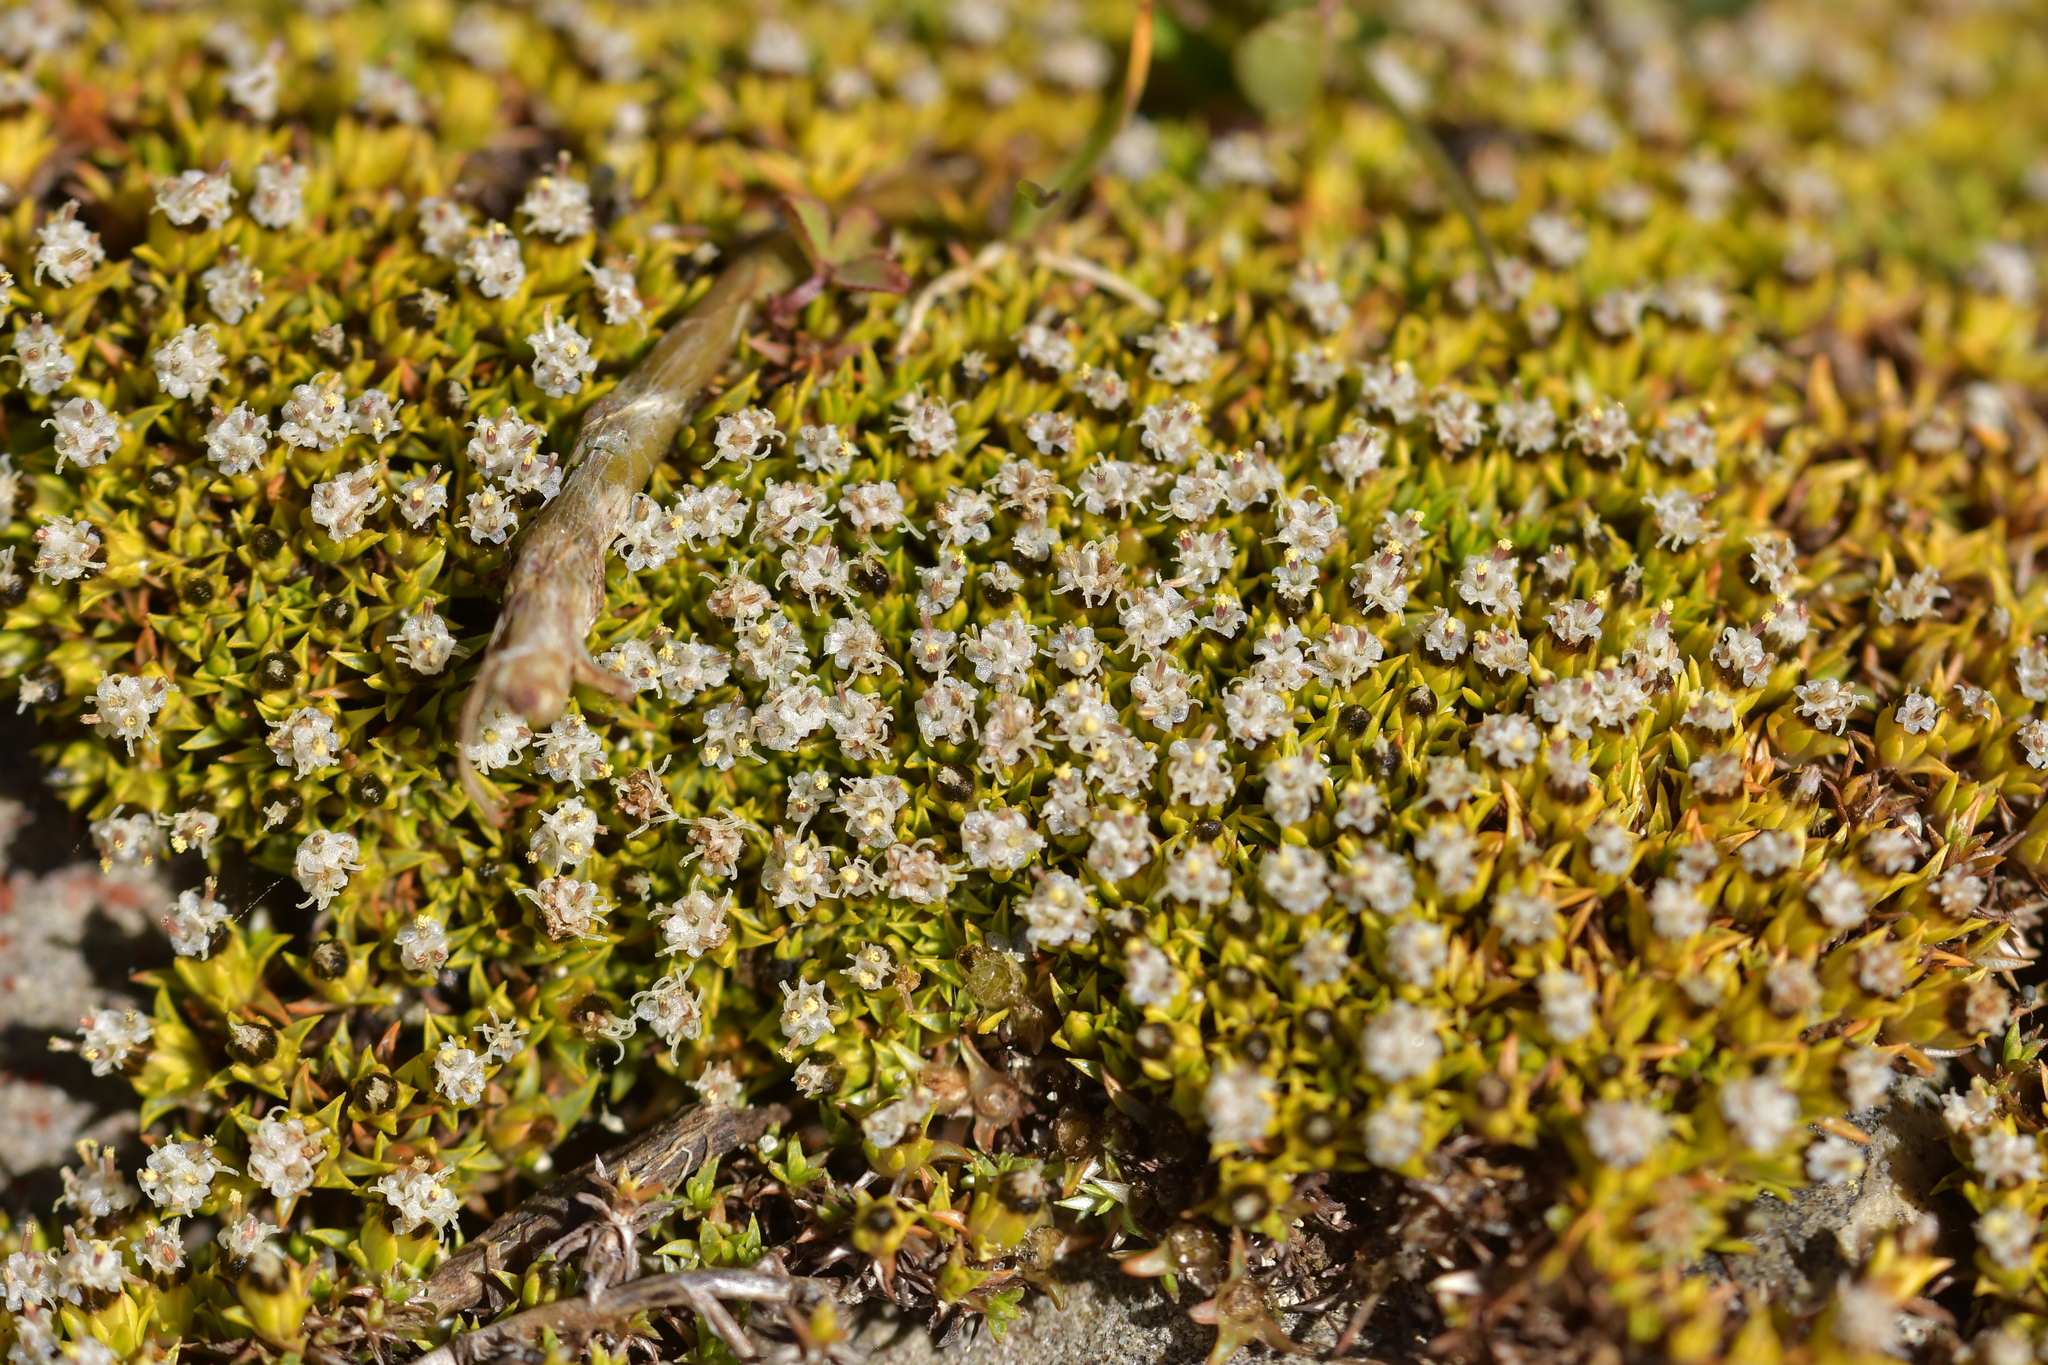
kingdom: Plantae
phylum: Tracheophyta
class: Magnoliopsida
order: Asterales
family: Asteraceae
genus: Raoulia
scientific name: Raoulia tenuicaulis
